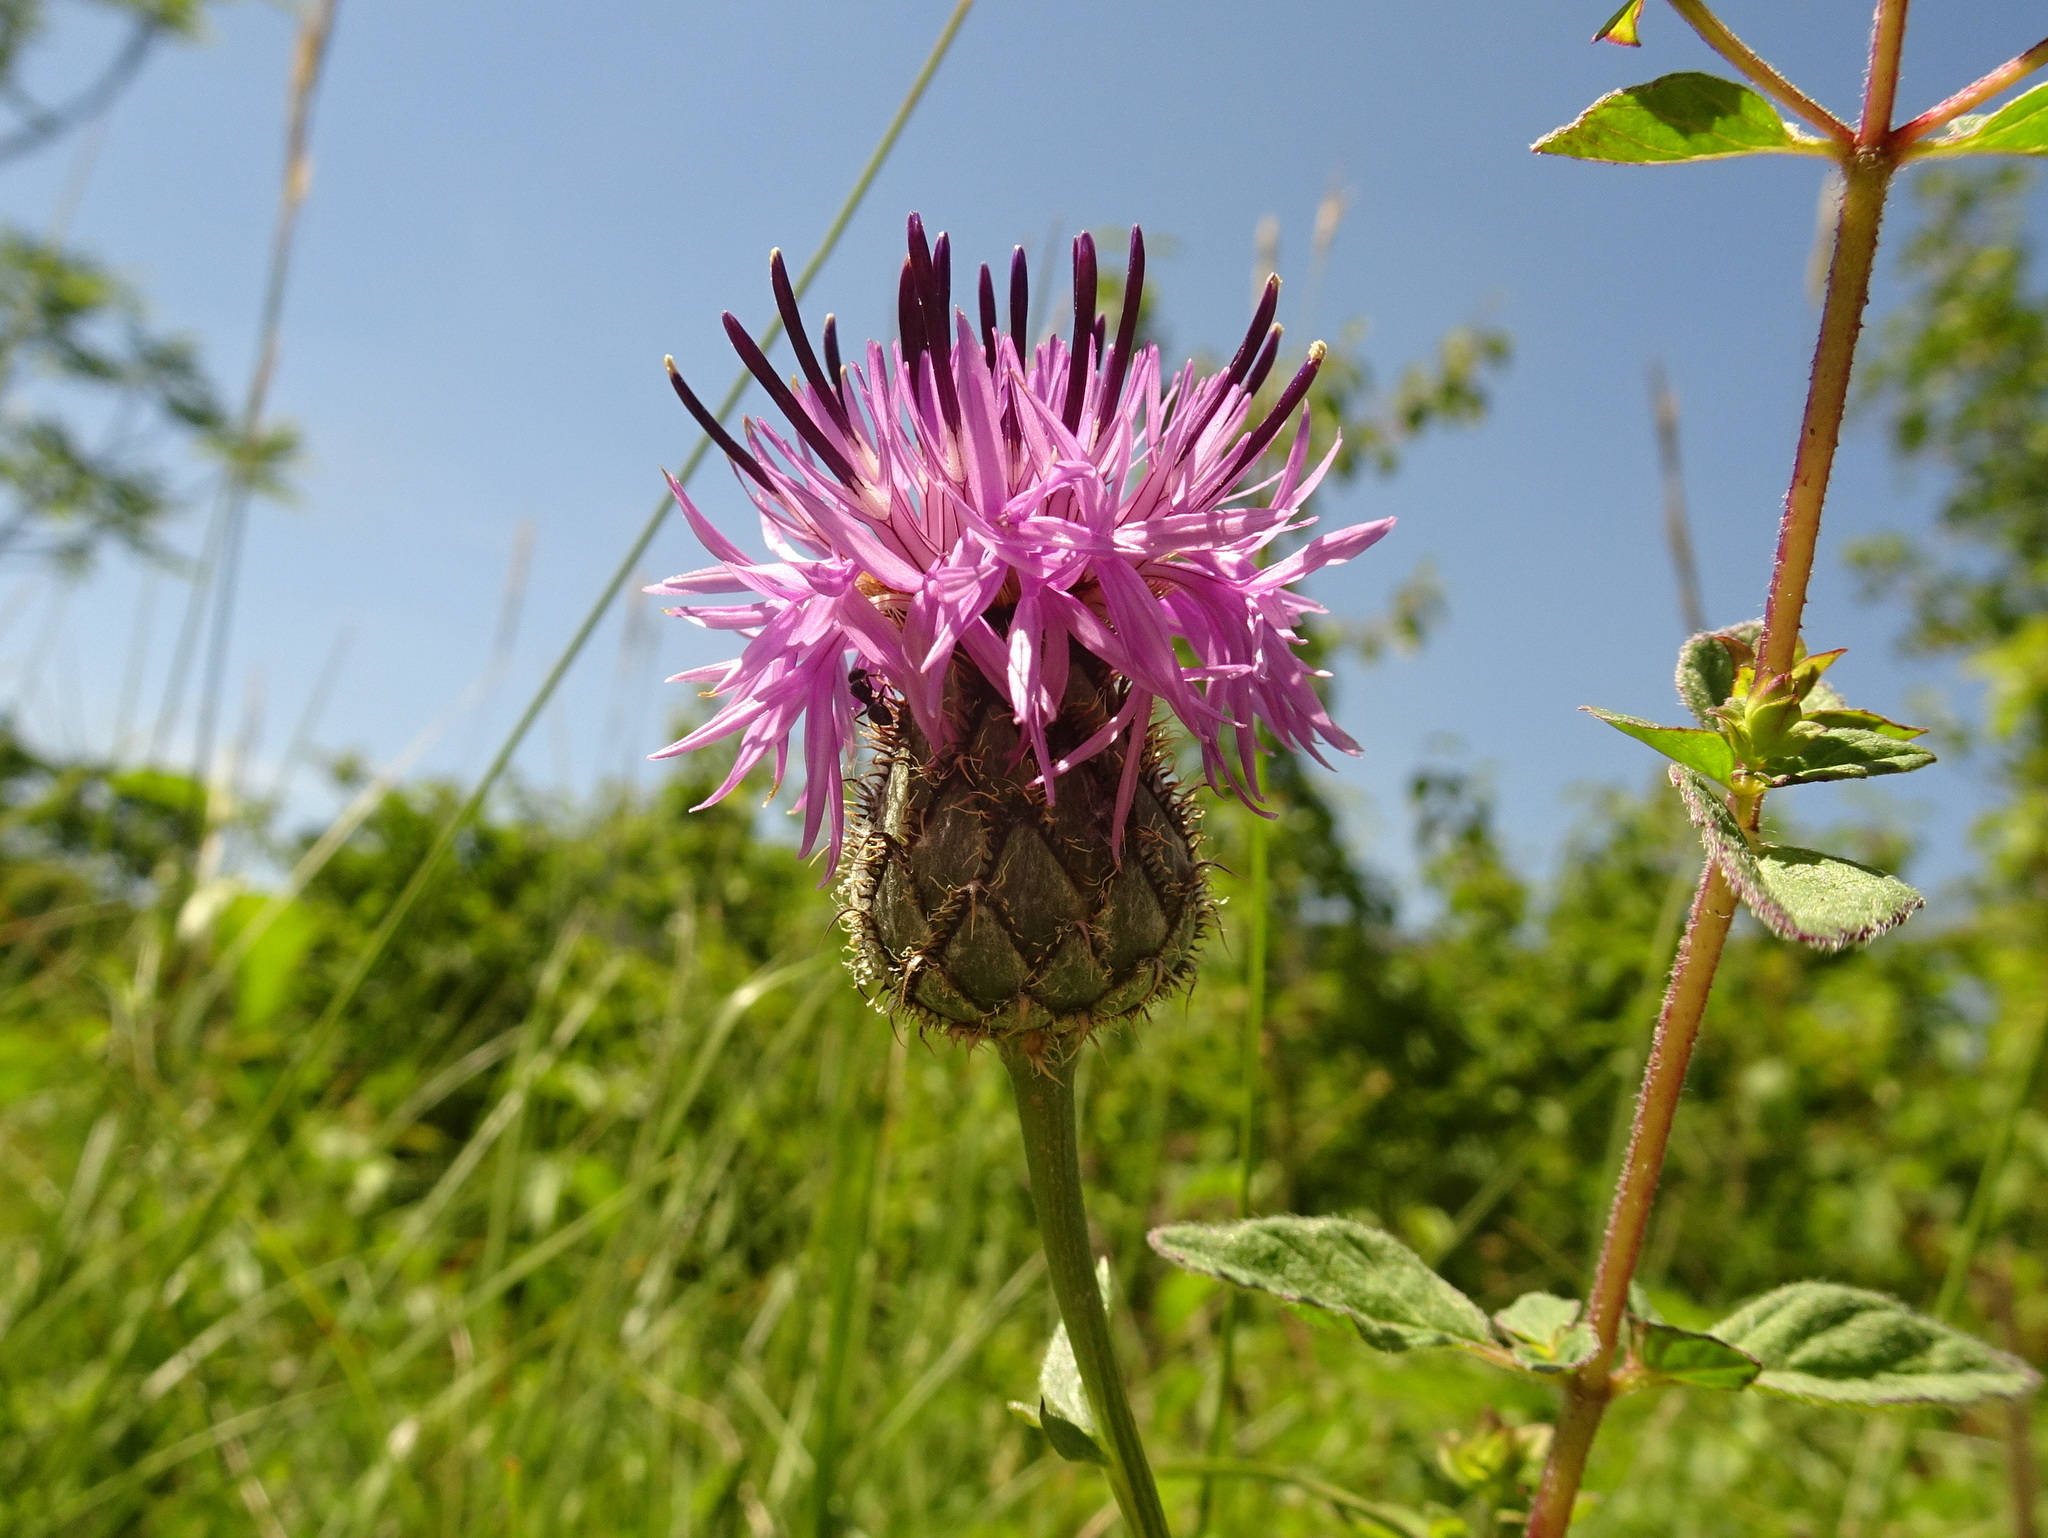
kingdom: Plantae
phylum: Tracheophyta
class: Magnoliopsida
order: Asterales
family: Asteraceae
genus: Centaurea
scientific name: Centaurea scabiosa
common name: Greater knapweed
